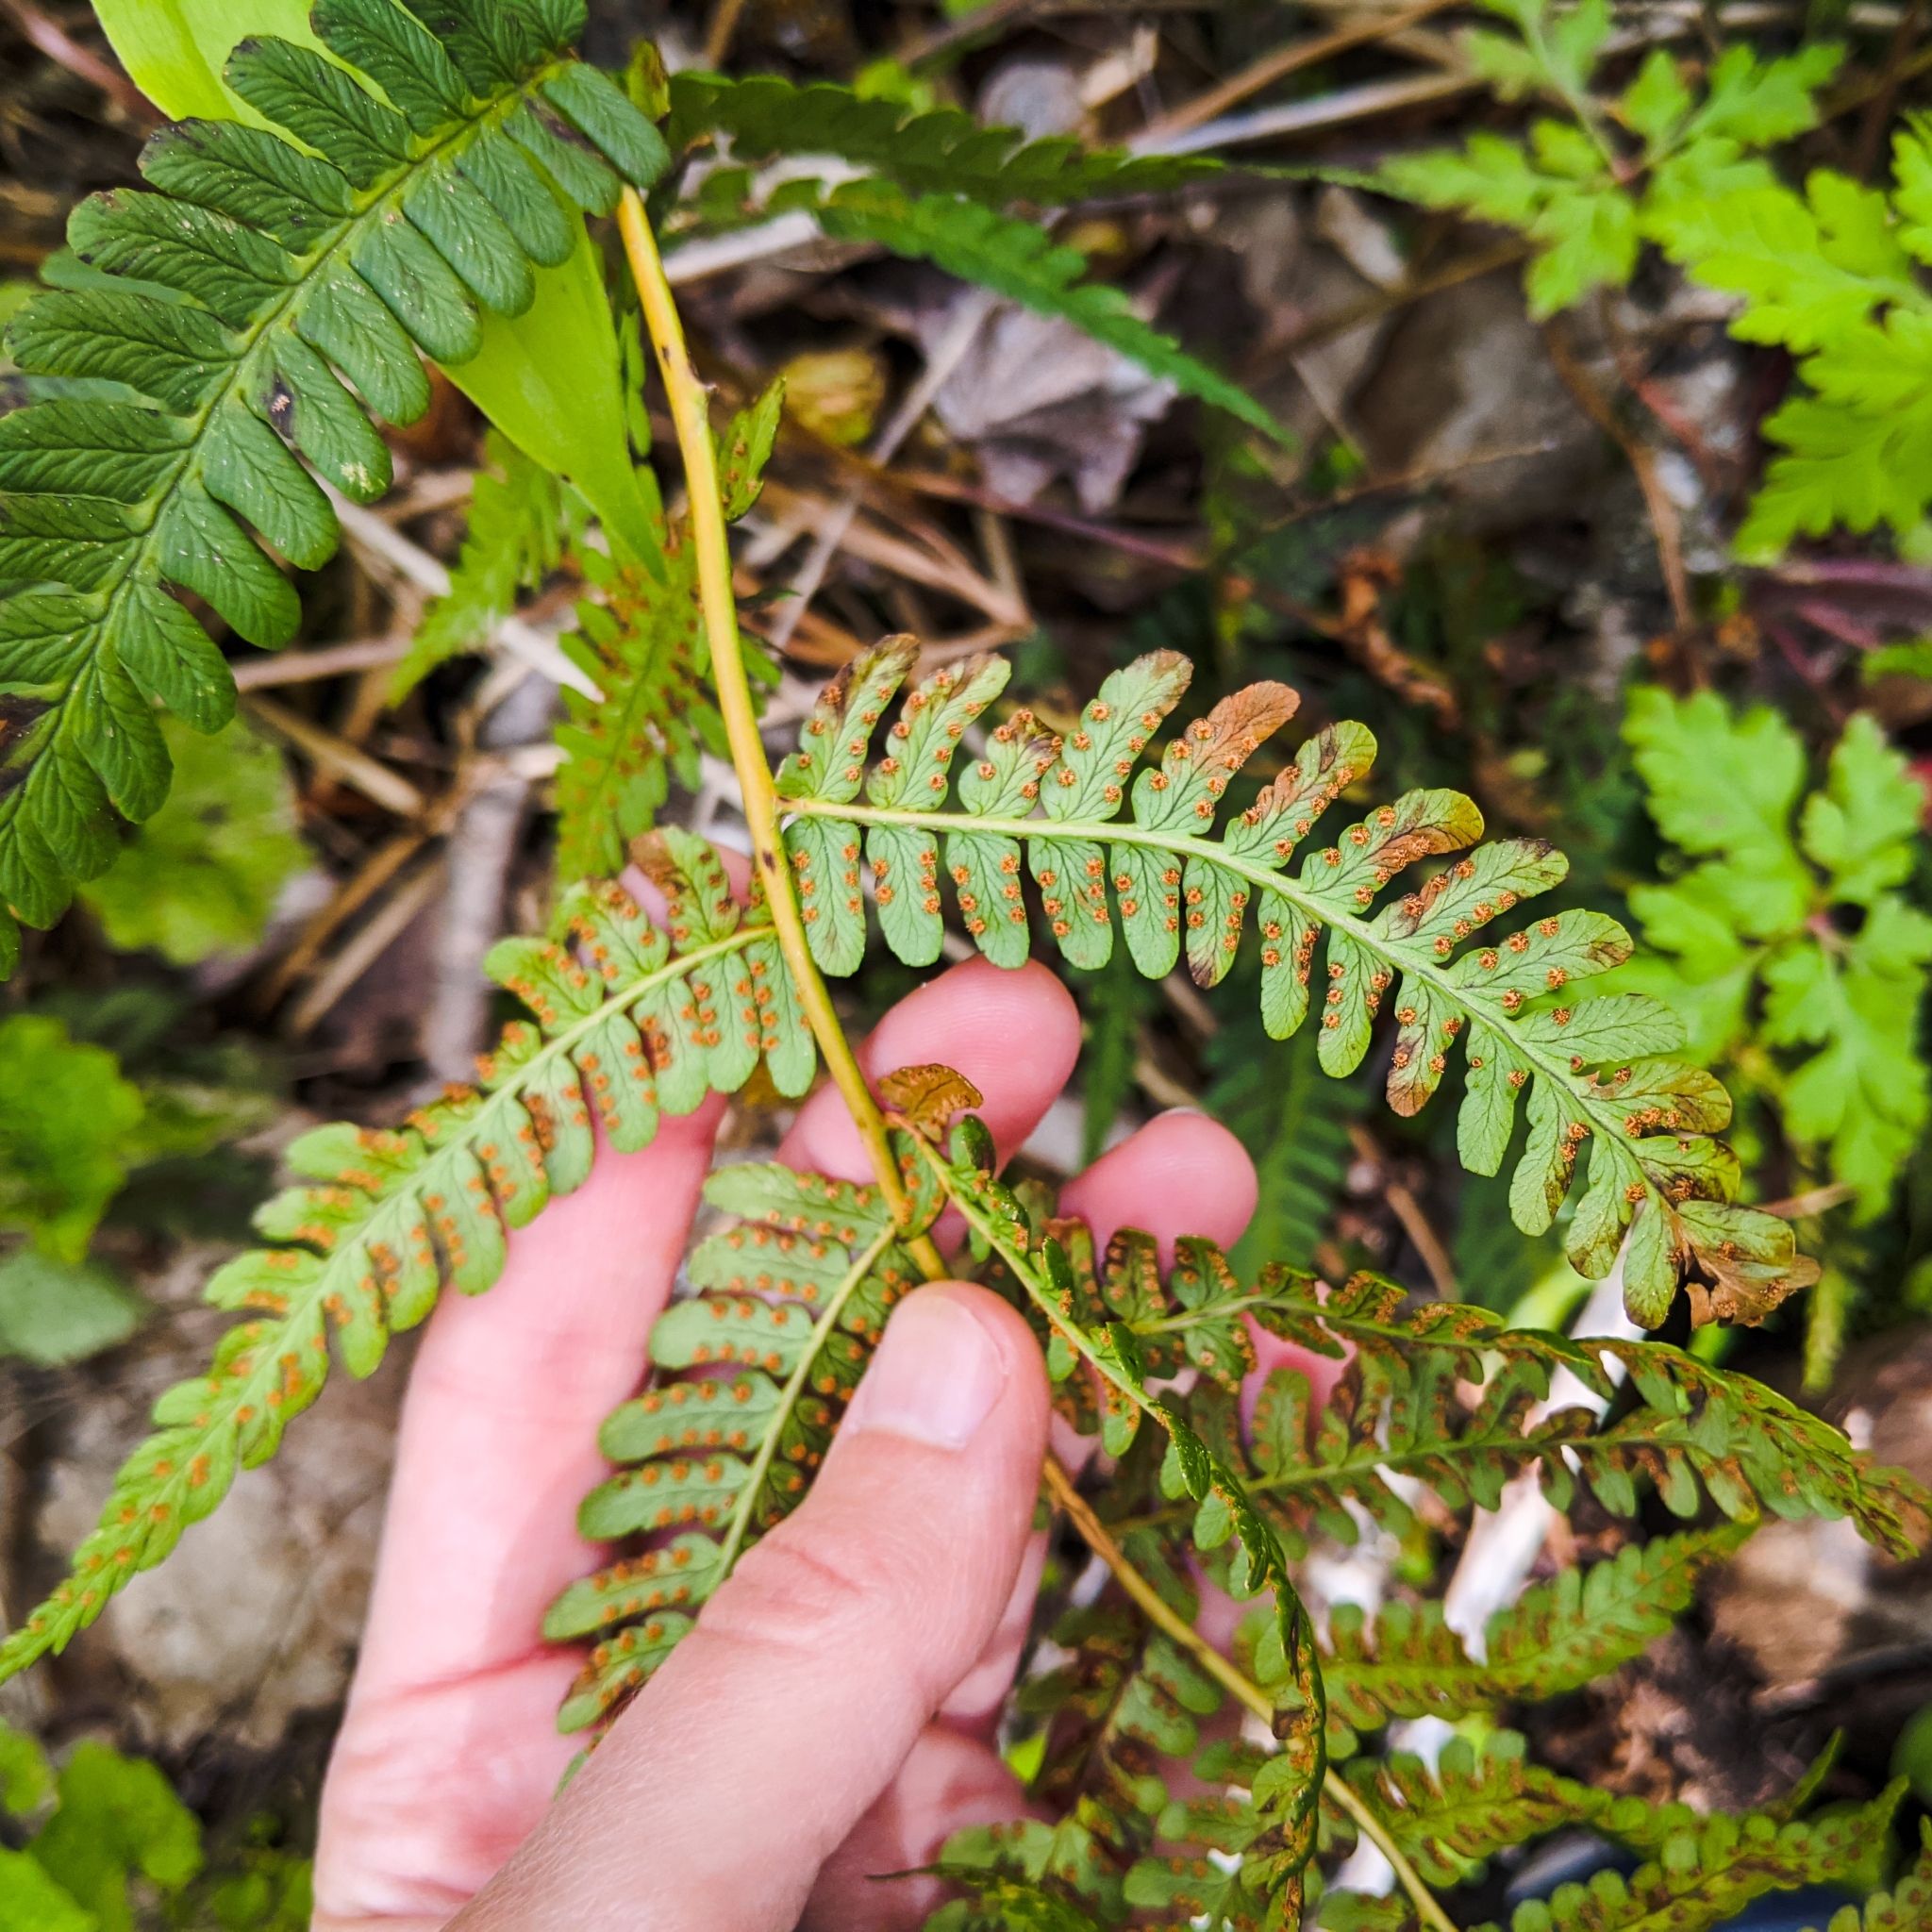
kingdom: Plantae
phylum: Tracheophyta
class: Polypodiopsida
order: Polypodiales
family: Dryopteridaceae
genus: Dryopteris
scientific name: Dryopteris marginalis
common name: Marginal wood fern
